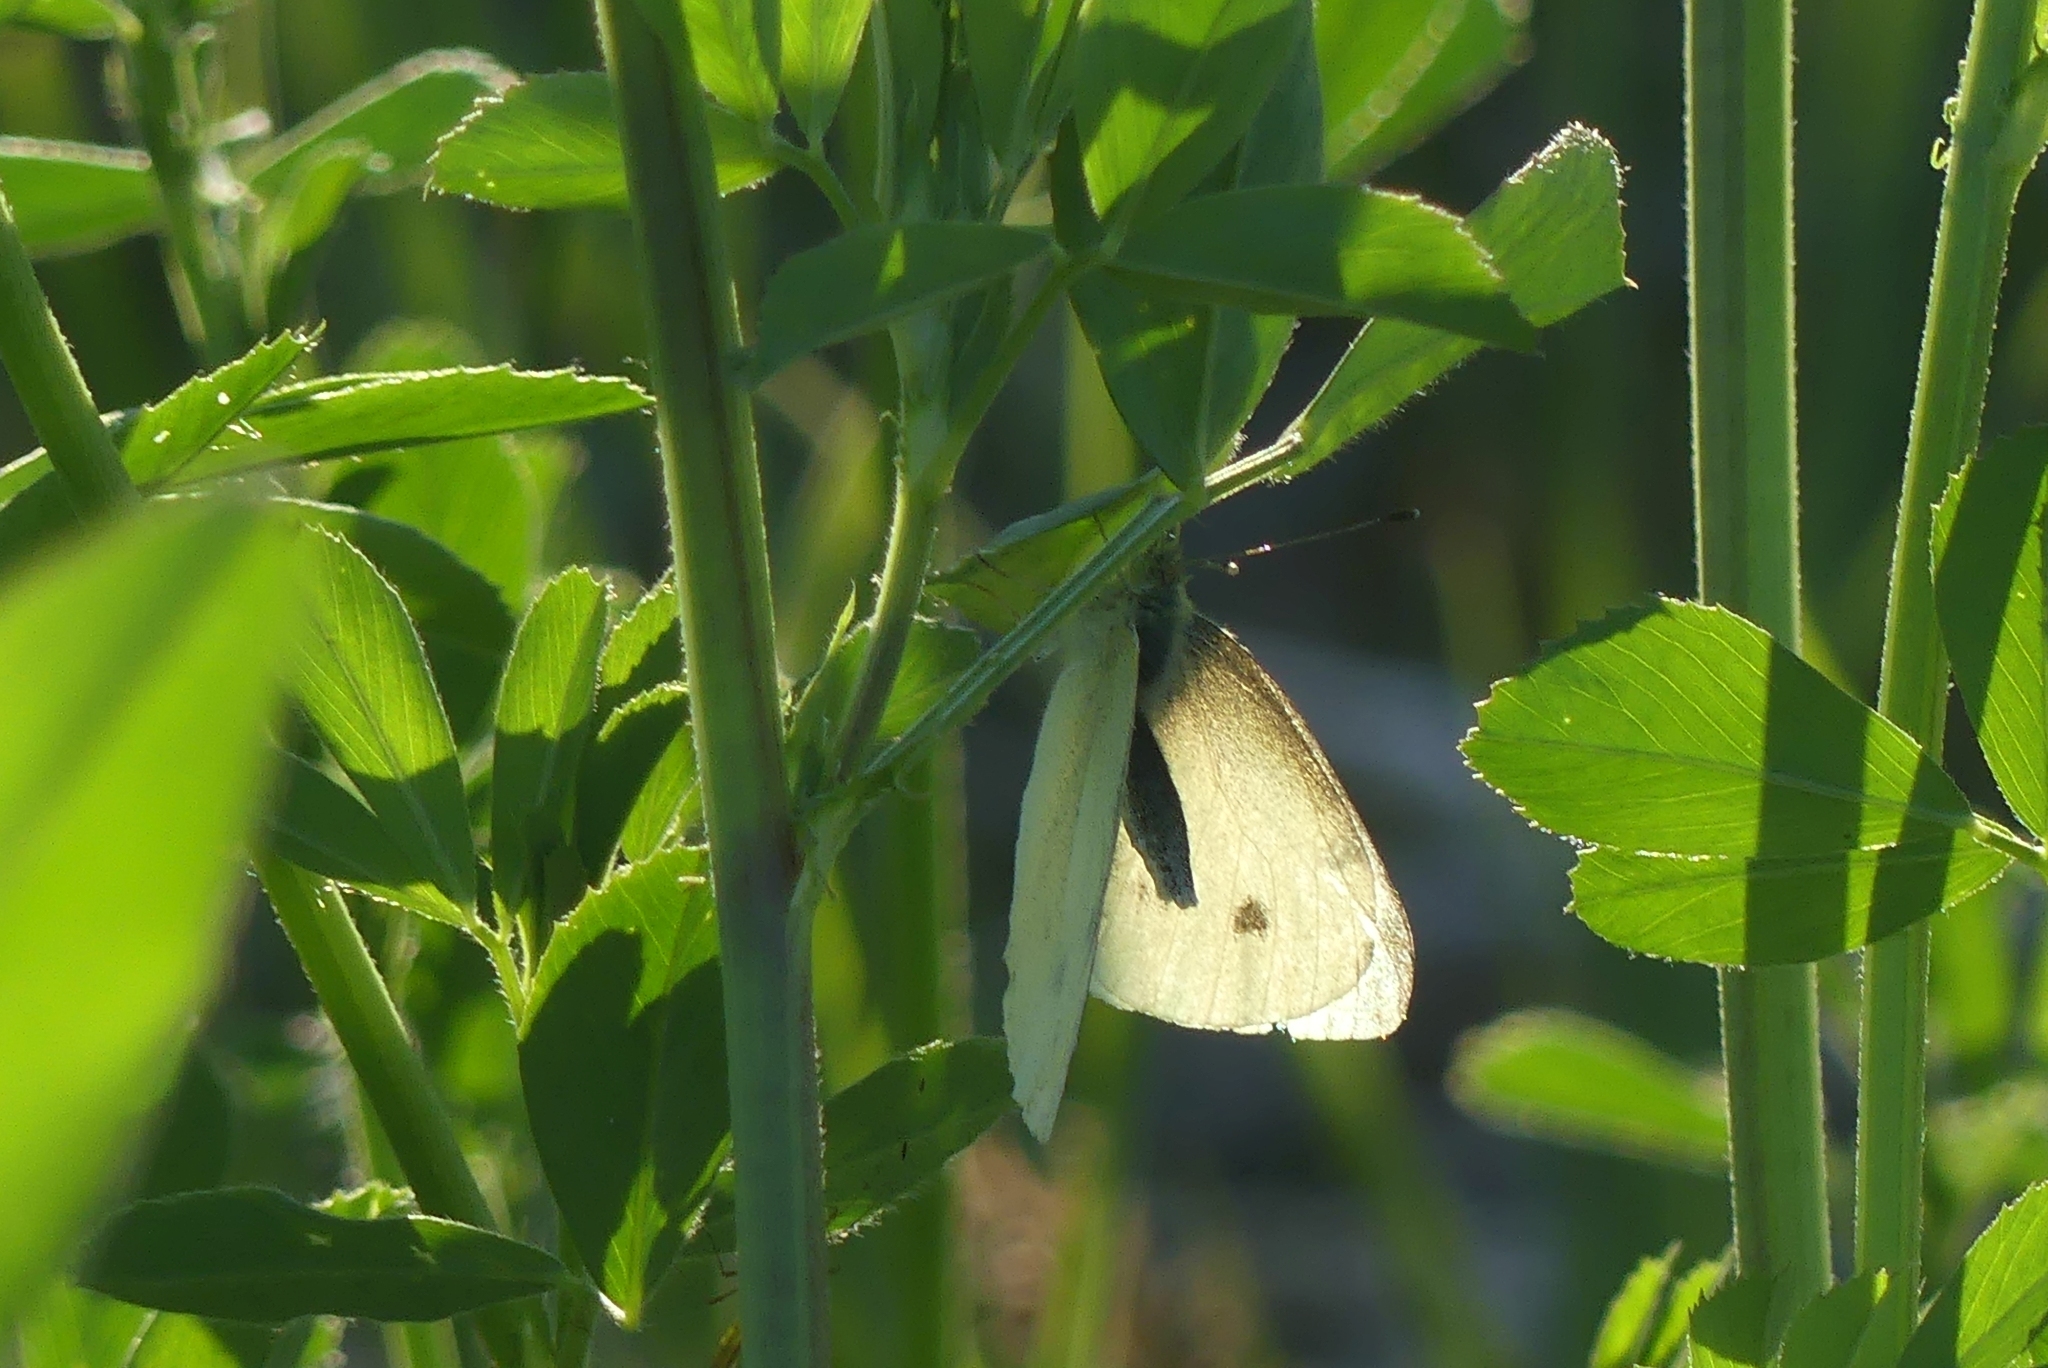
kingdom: Animalia
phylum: Arthropoda
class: Insecta
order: Lepidoptera
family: Pieridae
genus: Pieris
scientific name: Pieris rapae
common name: Small white
